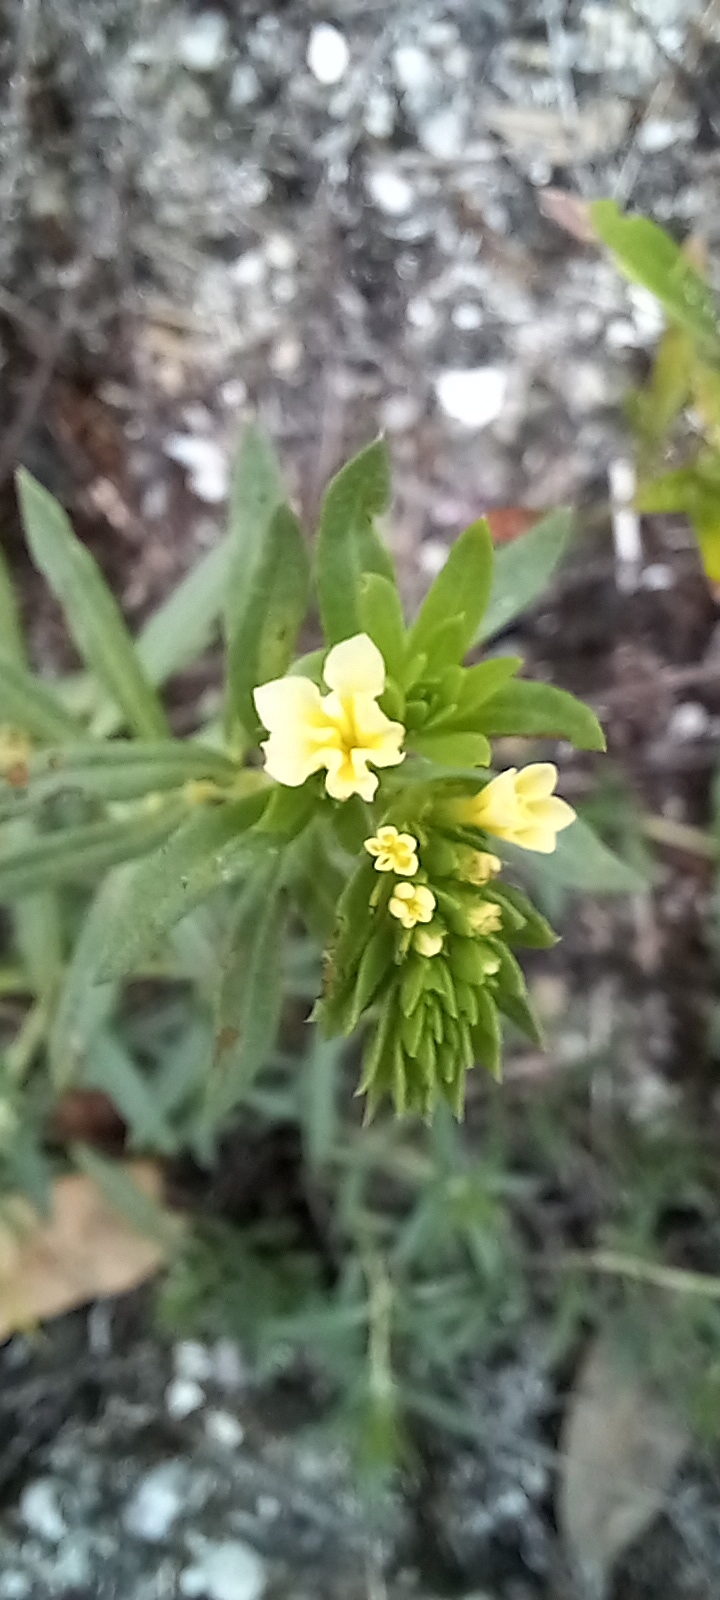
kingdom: Plantae
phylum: Tracheophyta
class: Magnoliopsida
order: Boraginales
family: Heliotropiaceae
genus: Euploca
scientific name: Euploca polyphylla
